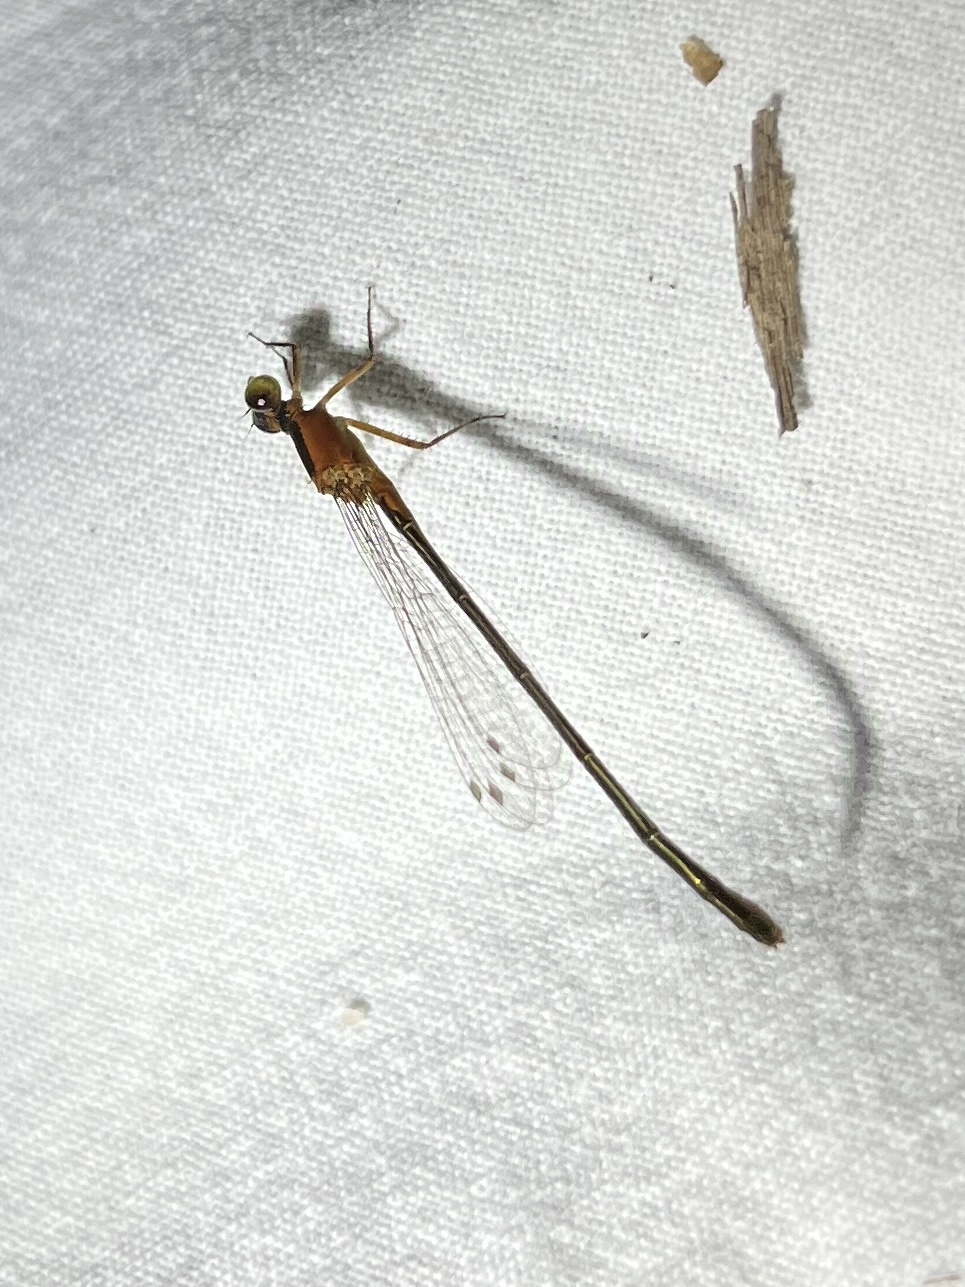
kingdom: Animalia
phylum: Arthropoda
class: Insecta
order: Odonata
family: Coenagrionidae
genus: Ischnura
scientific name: Ischnura ramburii
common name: Rambur's forktail
